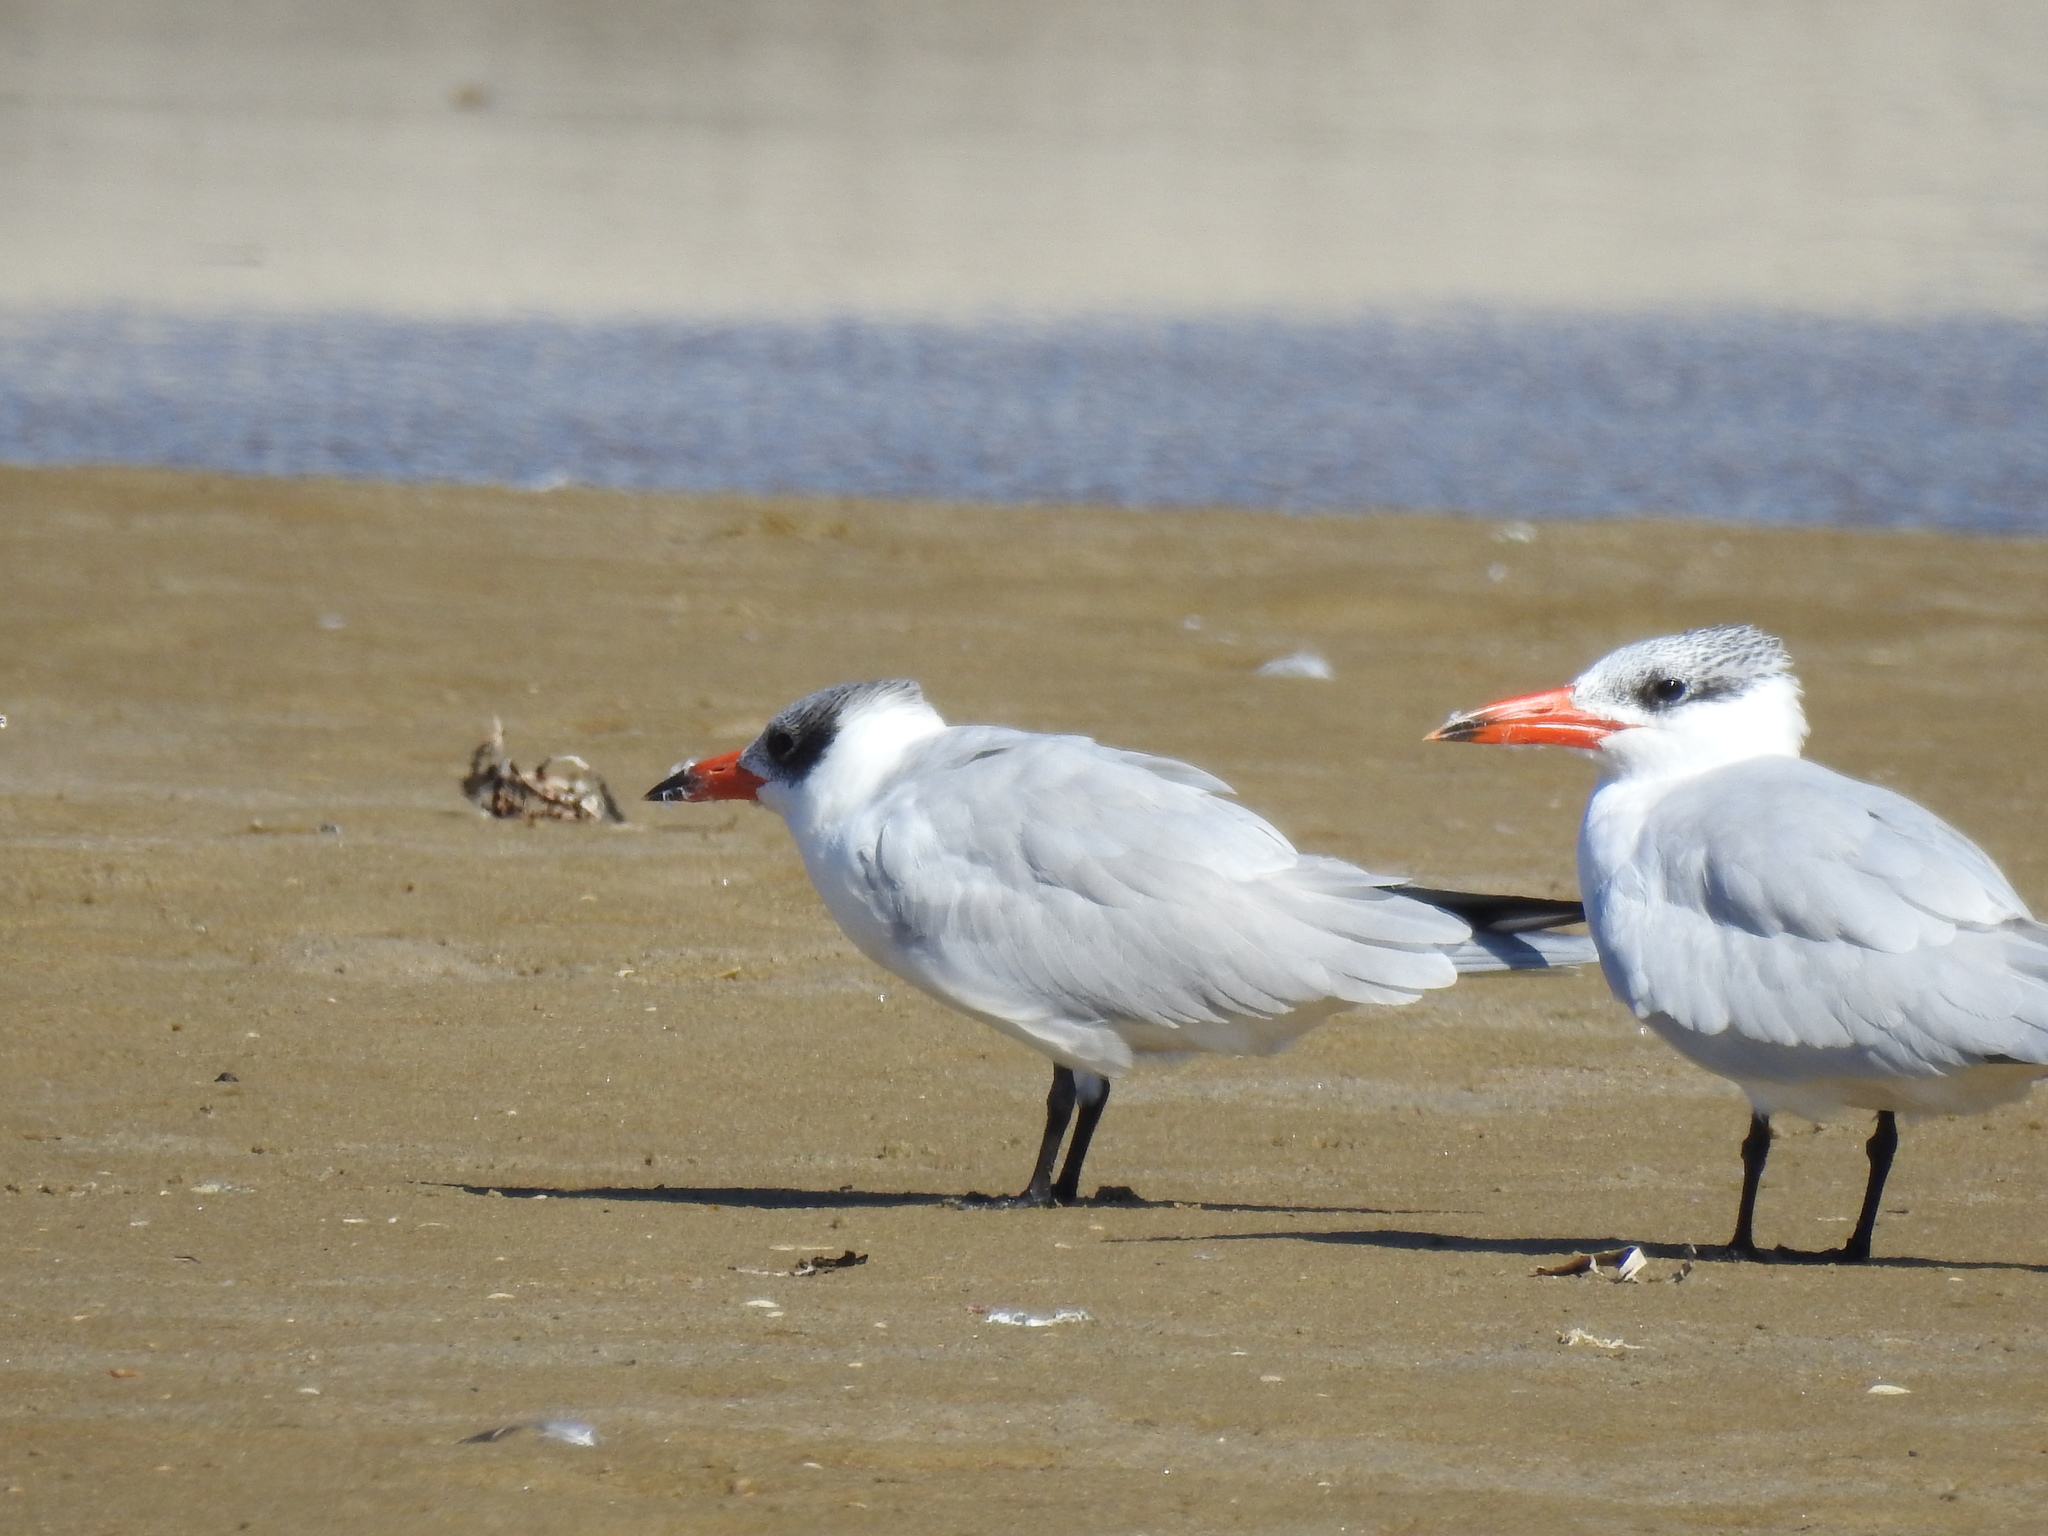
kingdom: Animalia
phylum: Chordata
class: Aves
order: Charadriiformes
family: Laridae
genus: Hydroprogne
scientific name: Hydroprogne caspia
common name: Caspian tern
